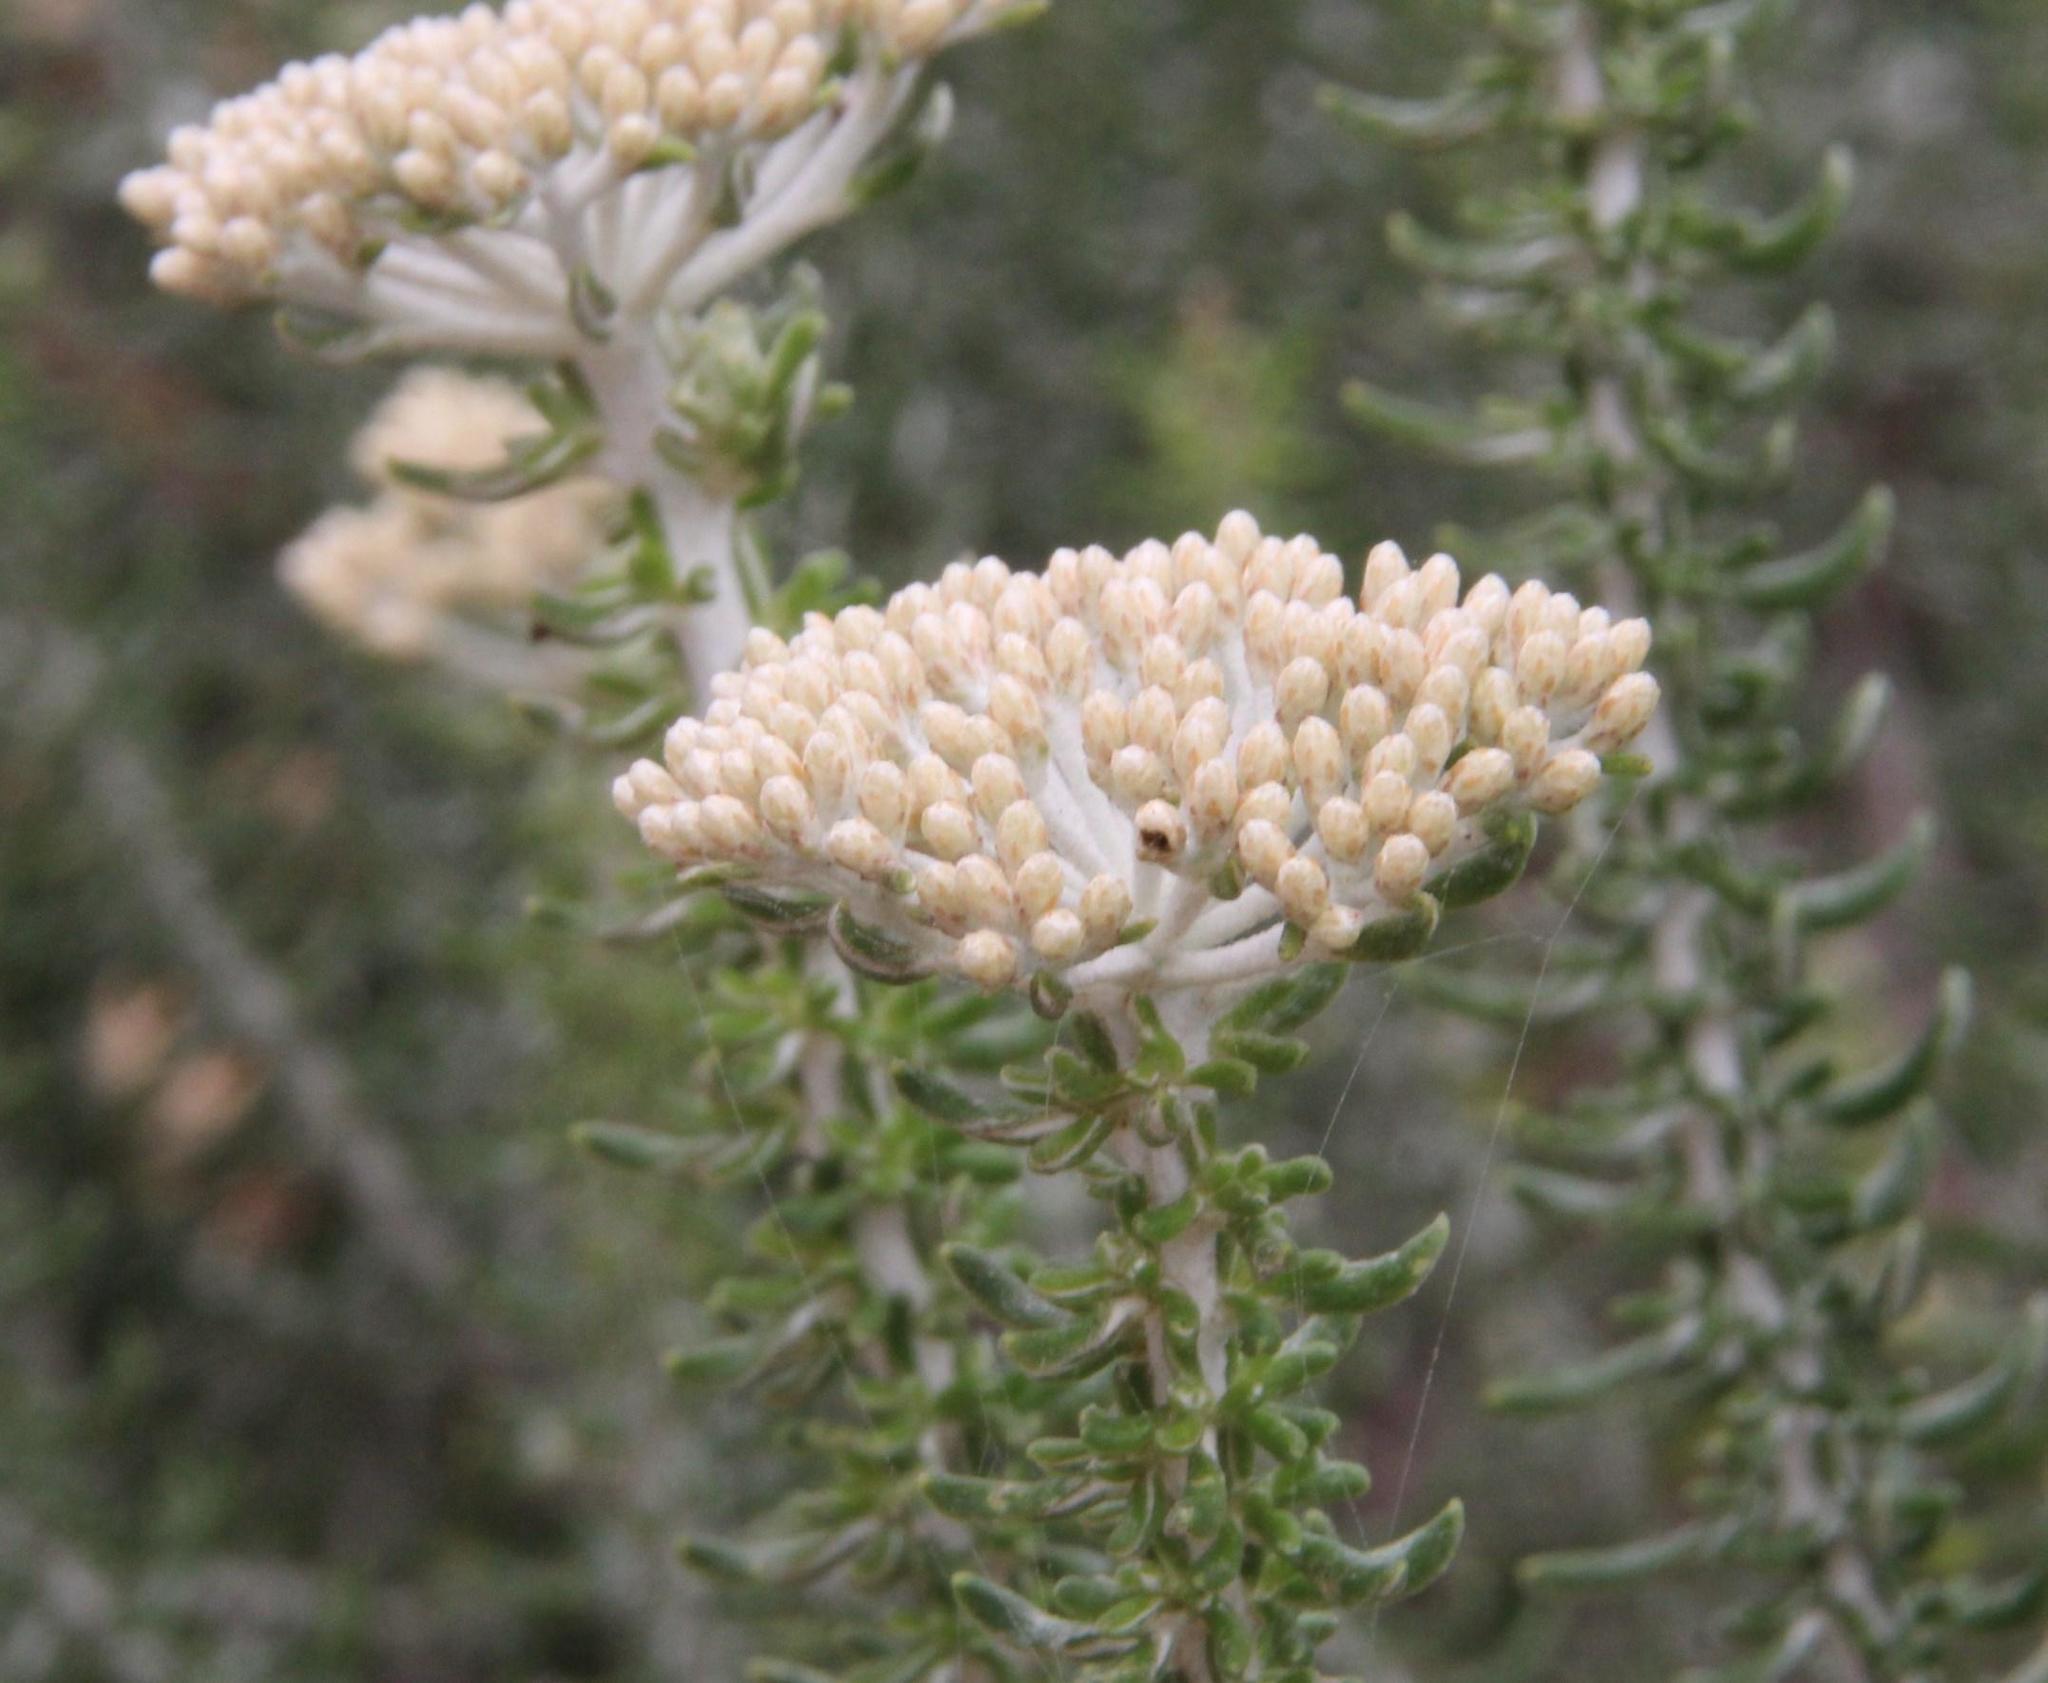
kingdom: Plantae
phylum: Tracheophyta
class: Magnoliopsida
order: Asterales
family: Asteraceae
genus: Metalasia
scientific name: Metalasia muricata
